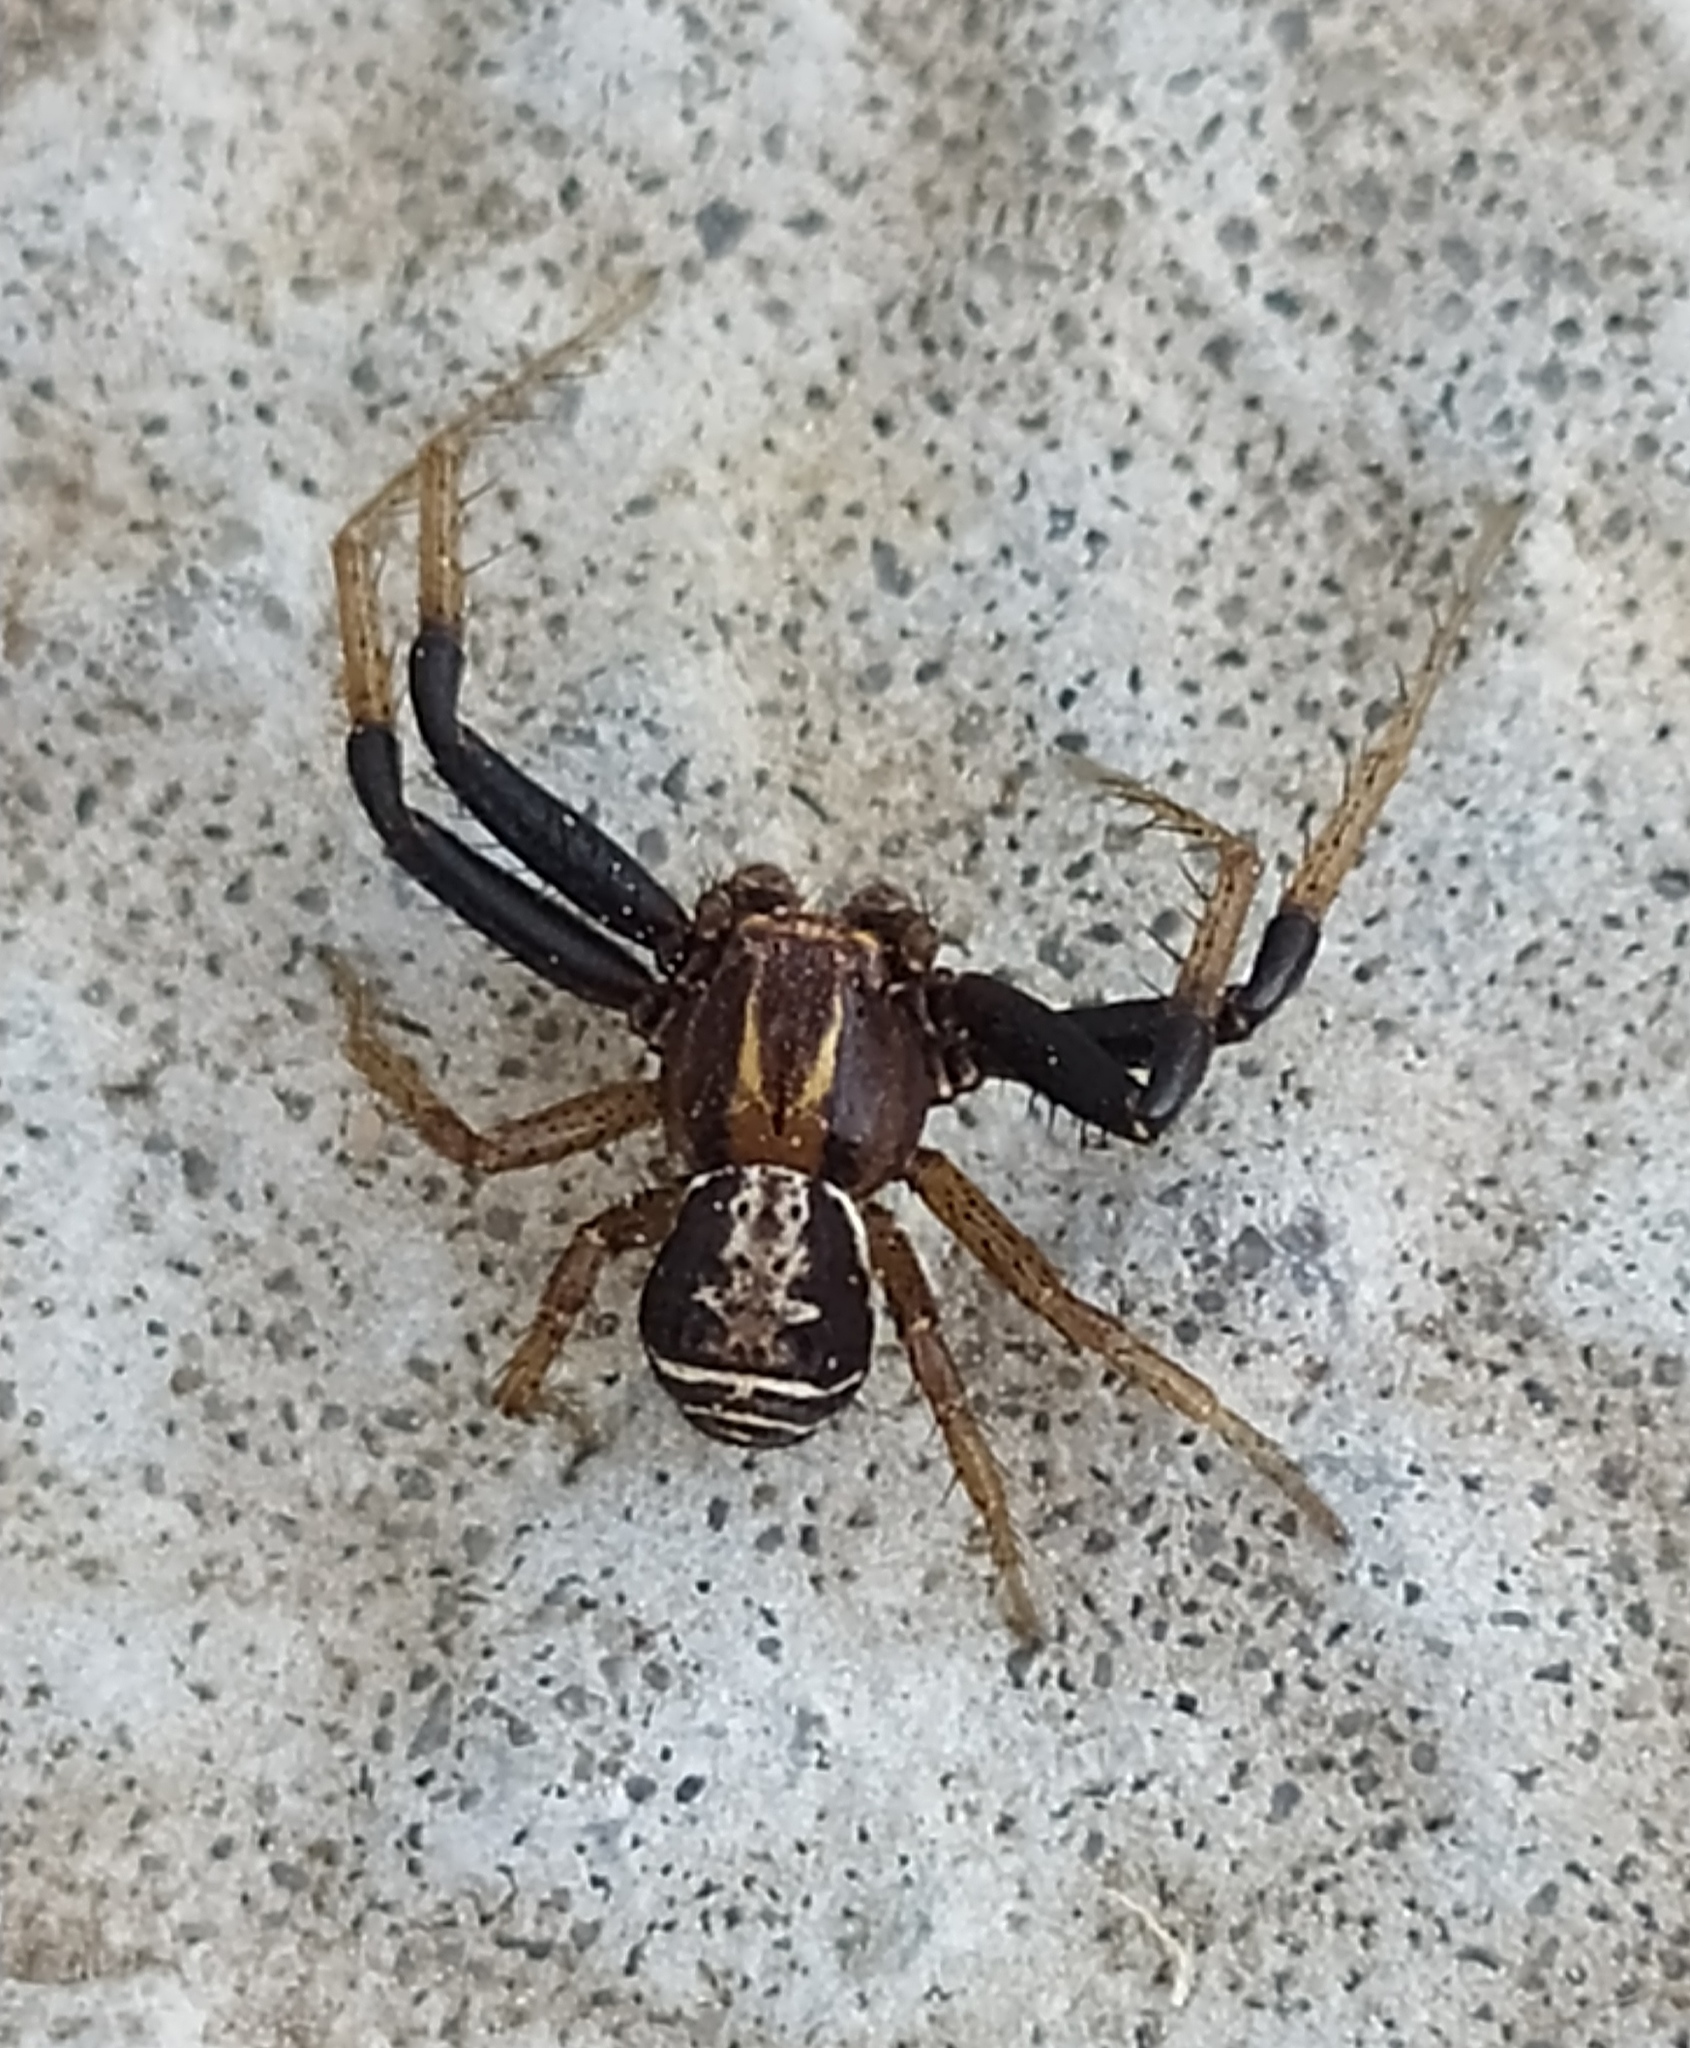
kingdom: Animalia
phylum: Arthropoda
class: Arachnida
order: Araneae
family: Thomisidae
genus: Xysticus
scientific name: Xysticus ulmi
